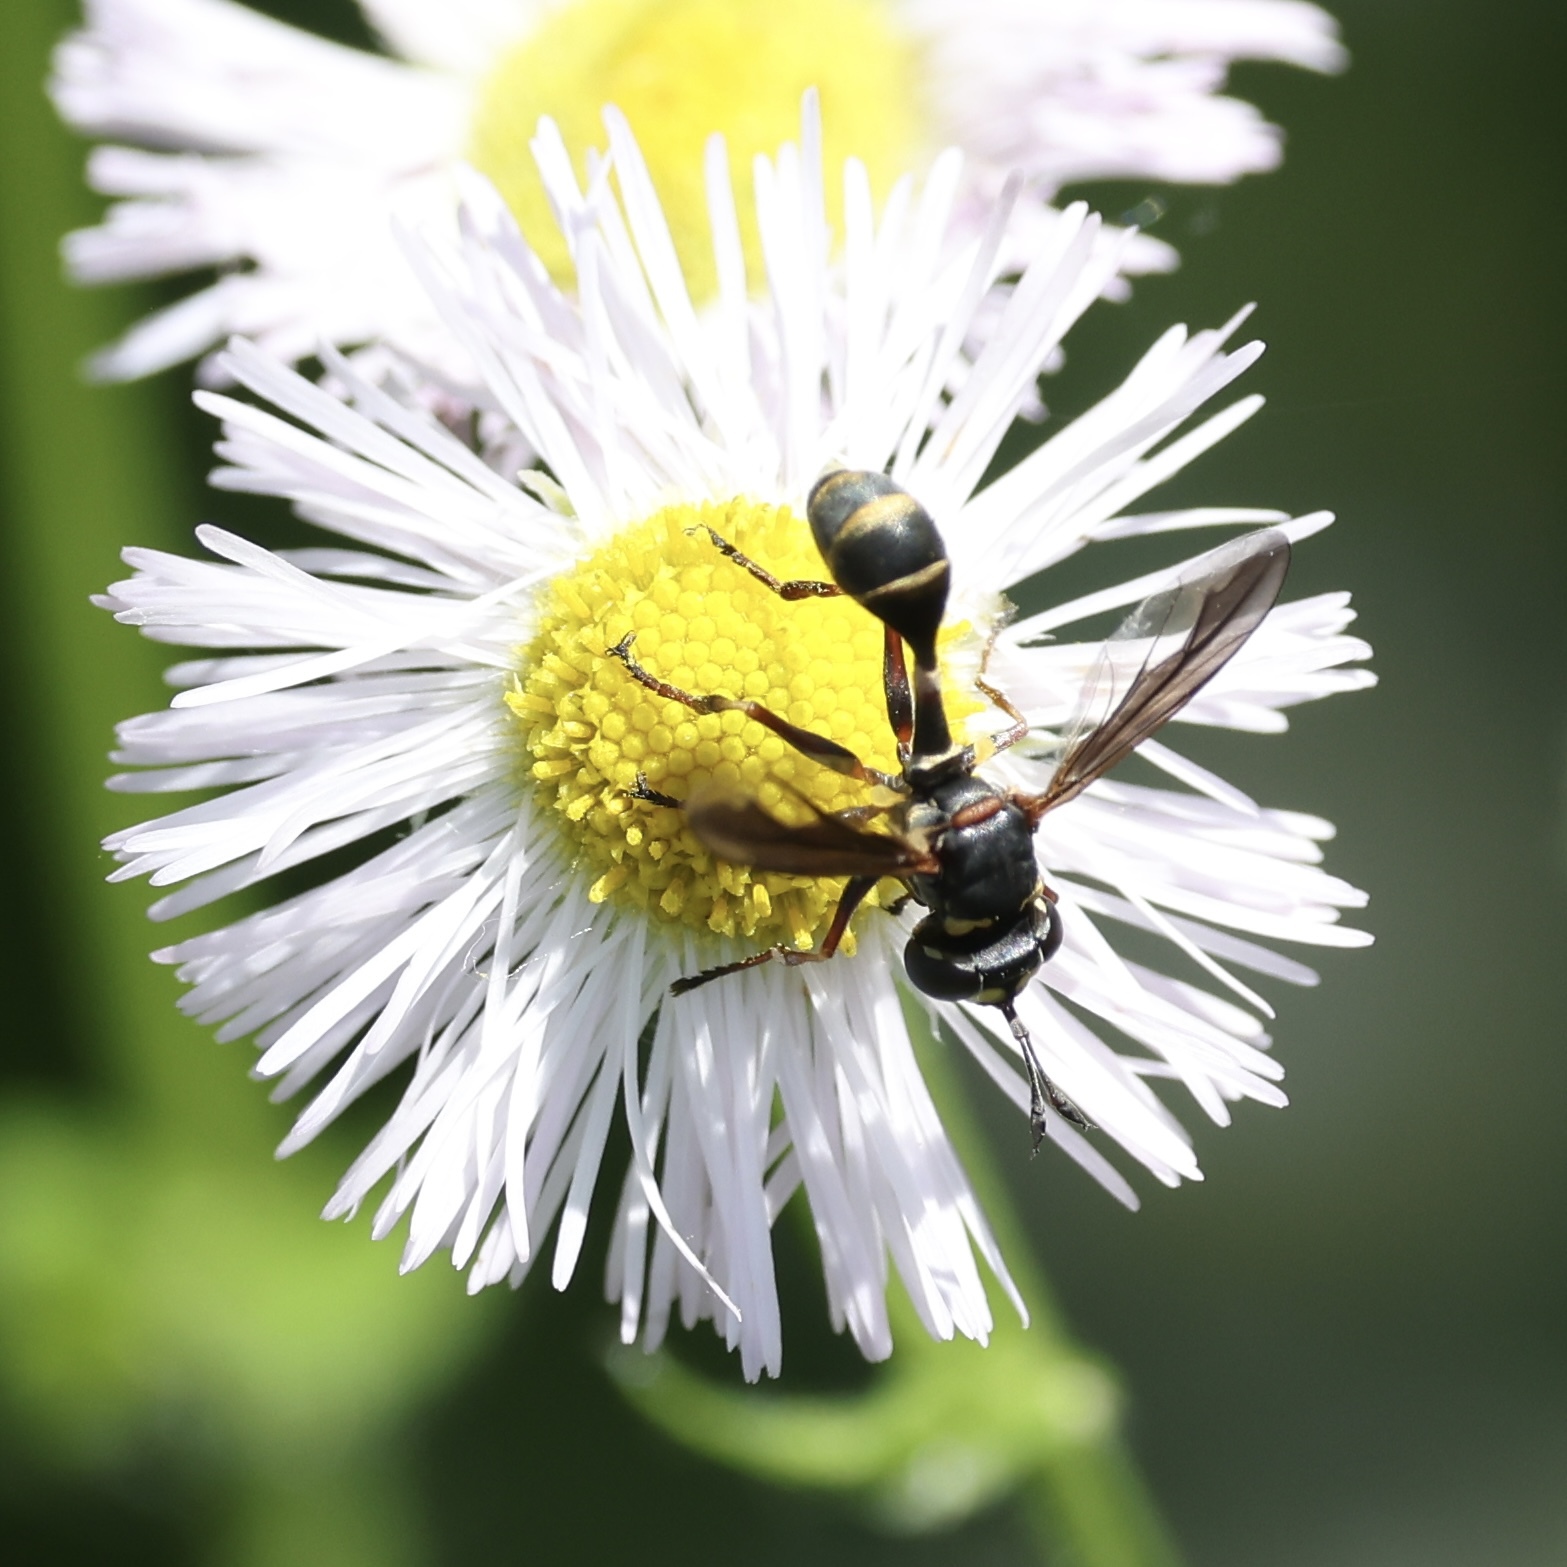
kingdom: Animalia
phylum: Arthropoda
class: Insecta
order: Diptera
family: Conopidae
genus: Physocephala
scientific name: Physocephala marginata
